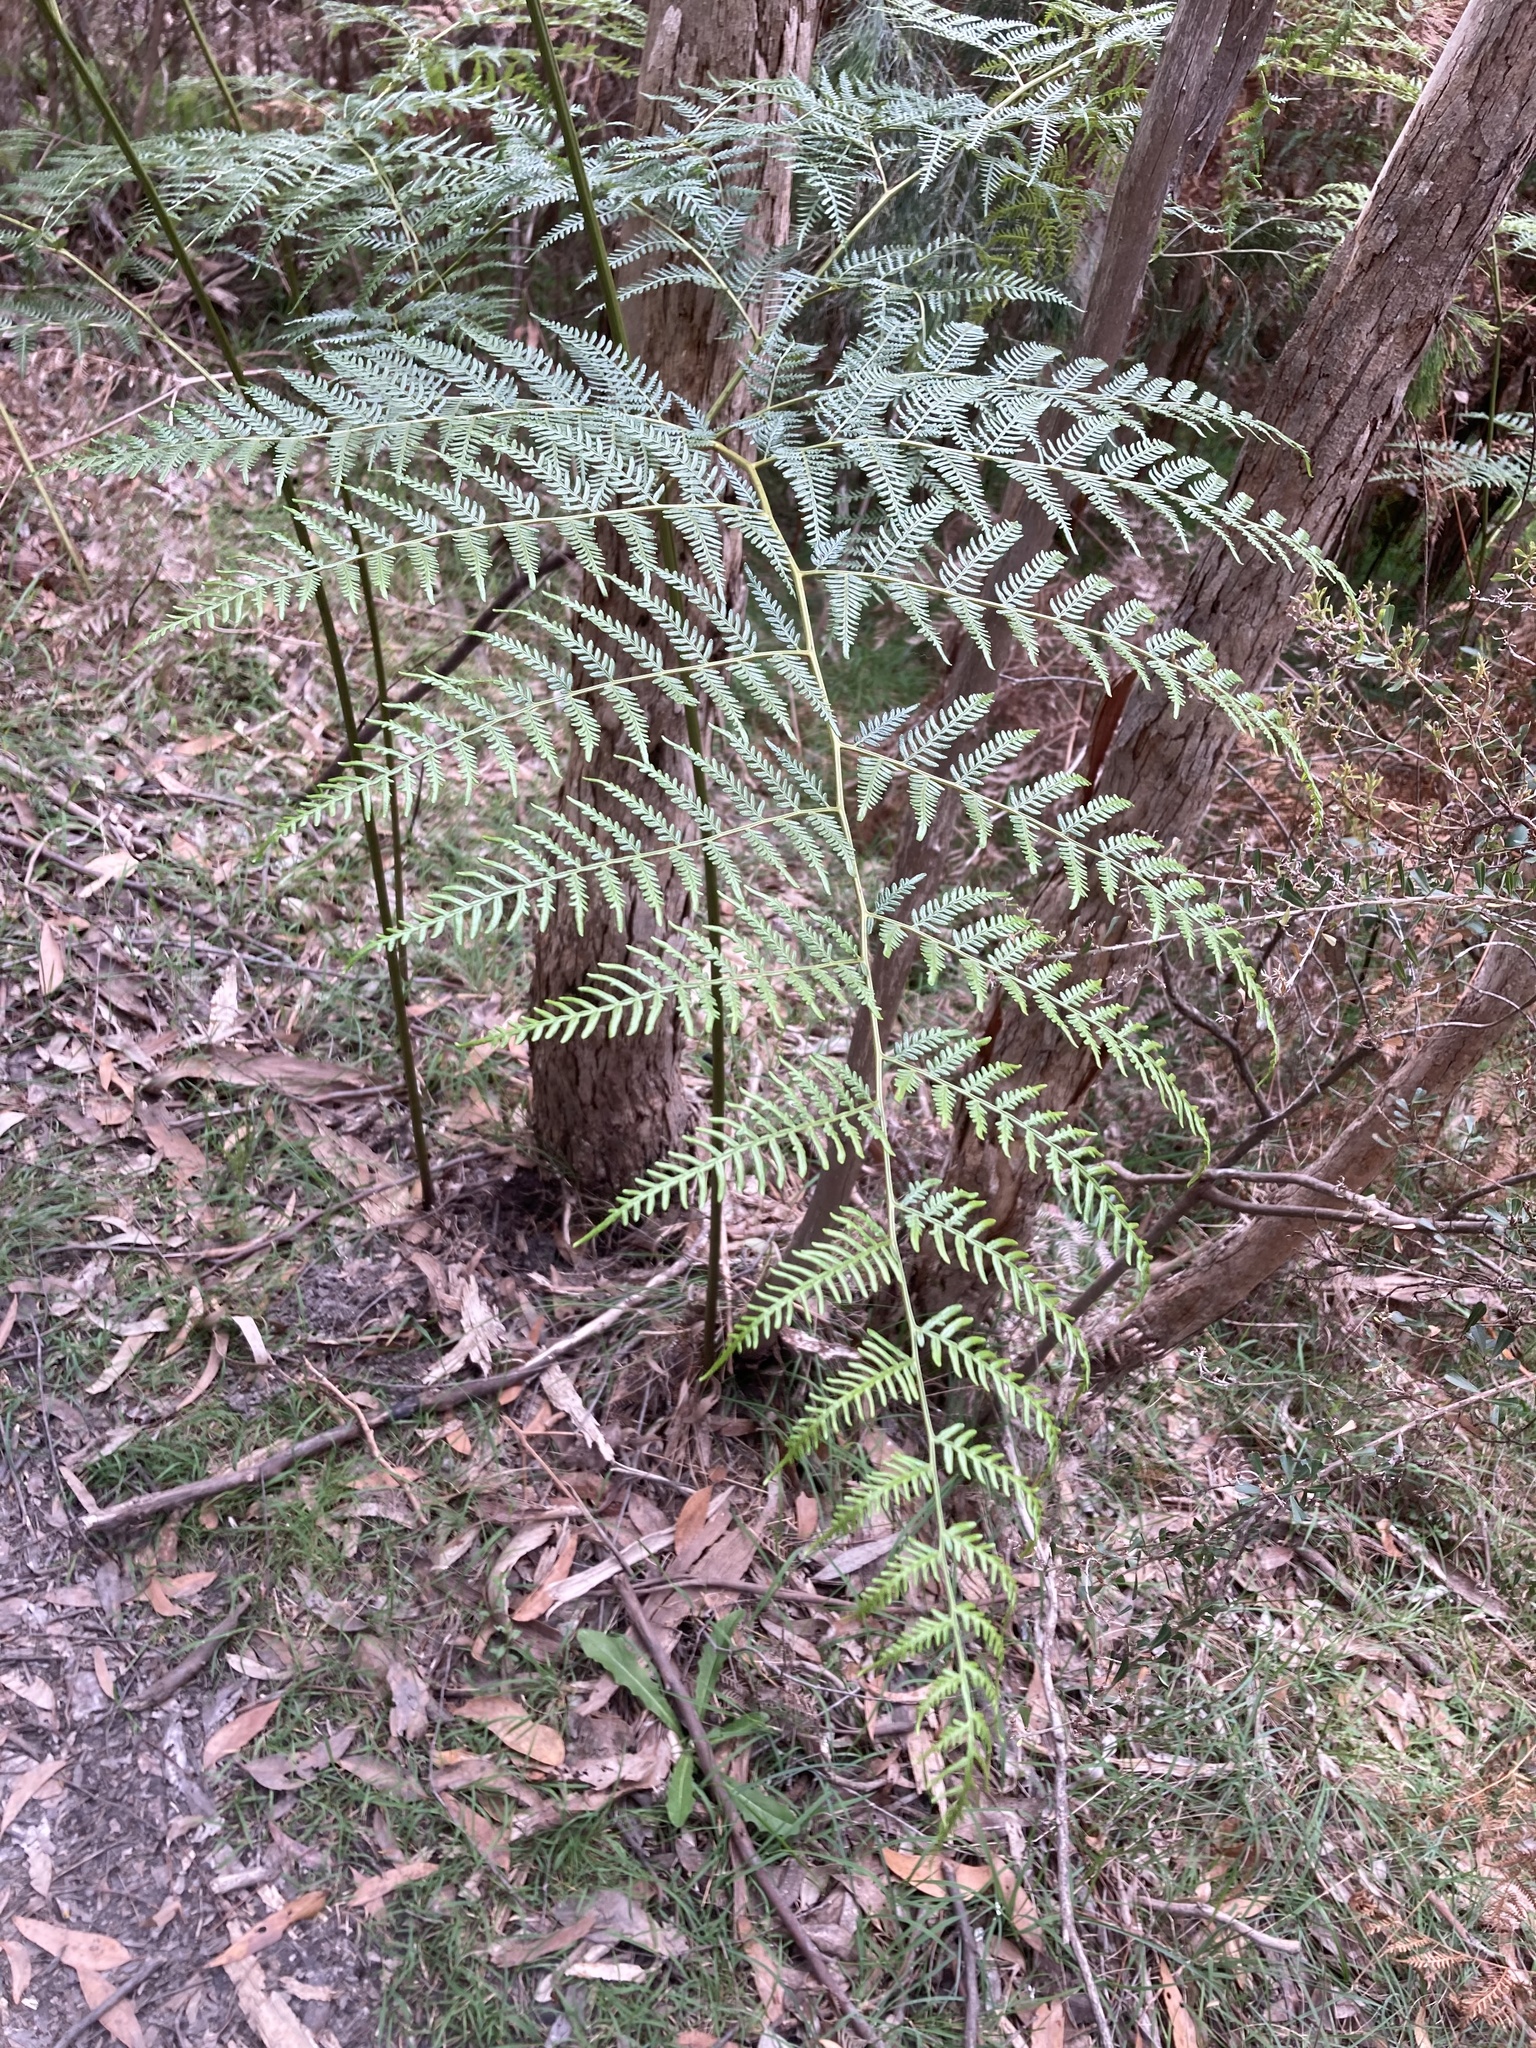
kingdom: Plantae
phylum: Tracheophyta
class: Polypodiopsida
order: Polypodiales
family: Dennstaedtiaceae
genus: Pteridium
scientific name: Pteridium esculentum
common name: Bracken fern
